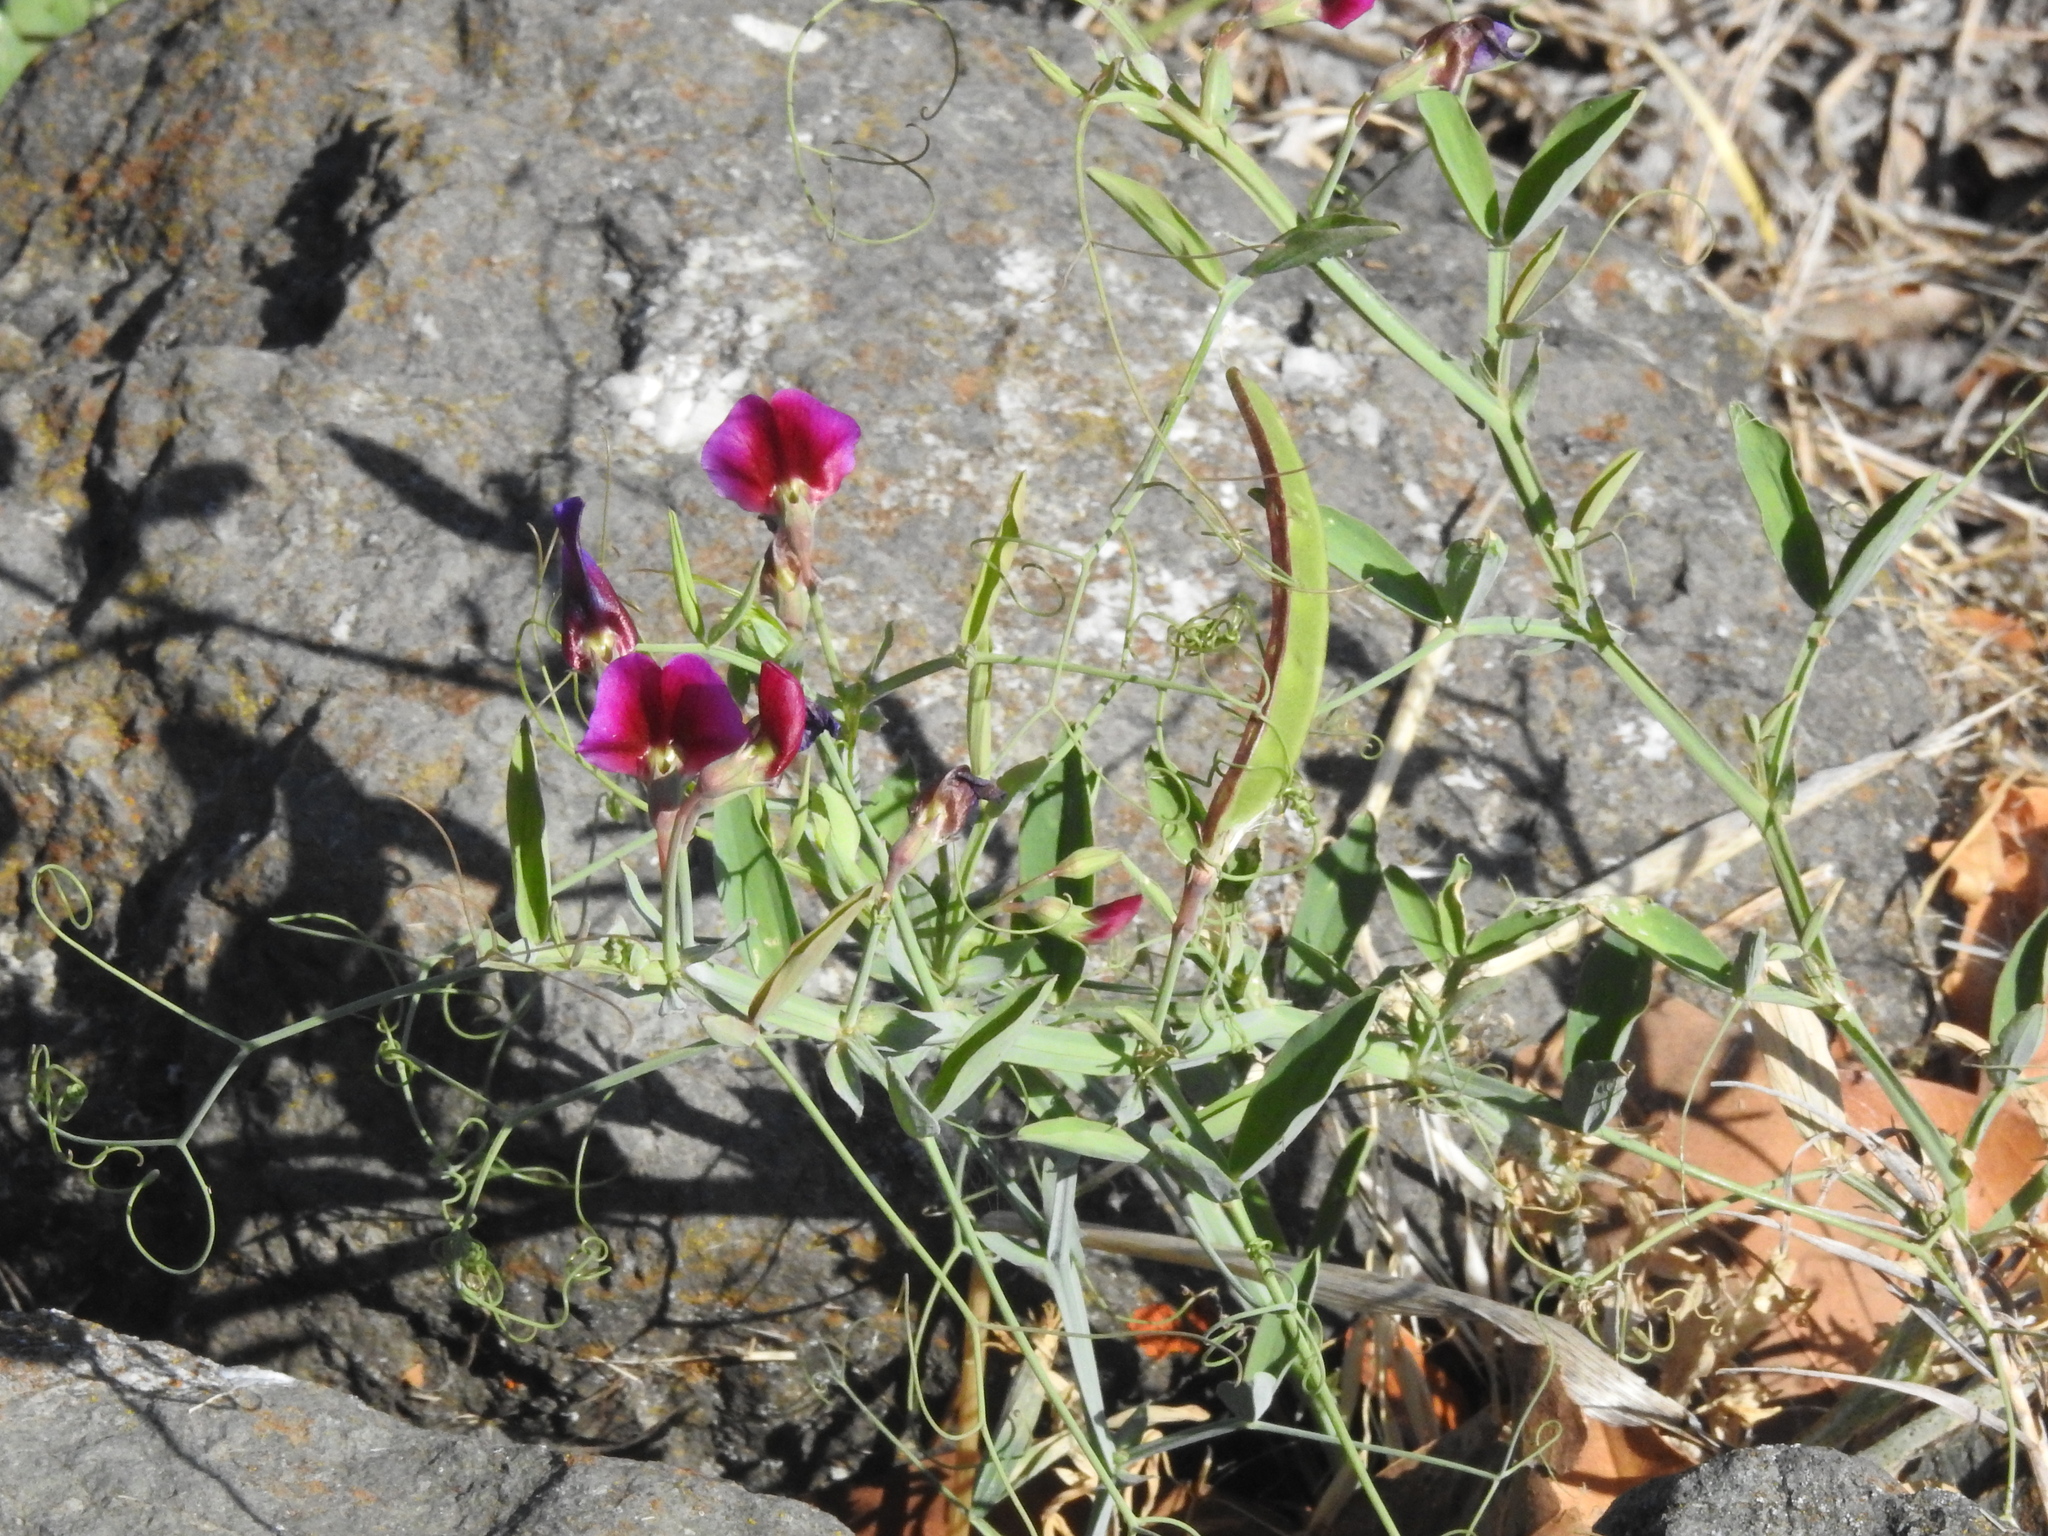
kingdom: Plantae
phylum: Tracheophyta
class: Magnoliopsida
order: Fabales
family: Fabaceae
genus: Lathyrus
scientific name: Lathyrus tingitanus
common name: Tangier pea
